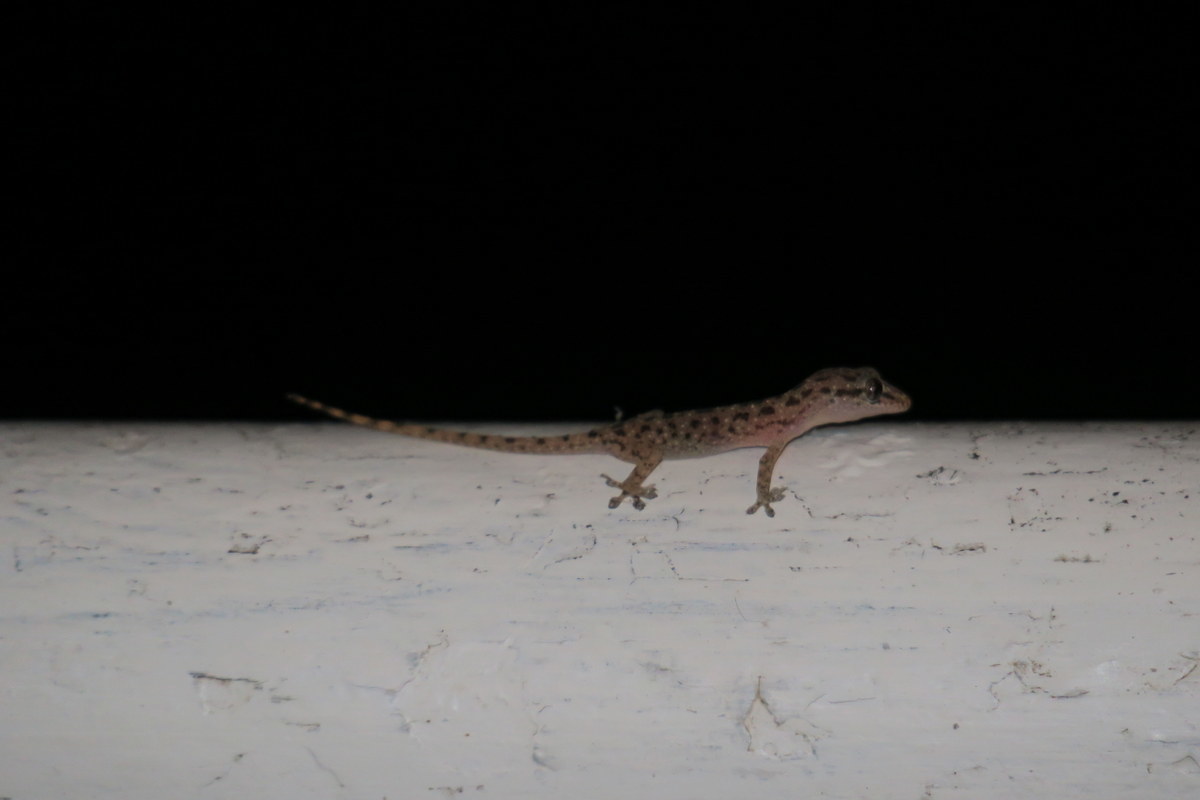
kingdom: Animalia
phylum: Chordata
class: Squamata
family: Gekkonidae
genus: Hemidactylus
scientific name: Hemidactylus parvimaculatus
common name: Spotted house gecko
